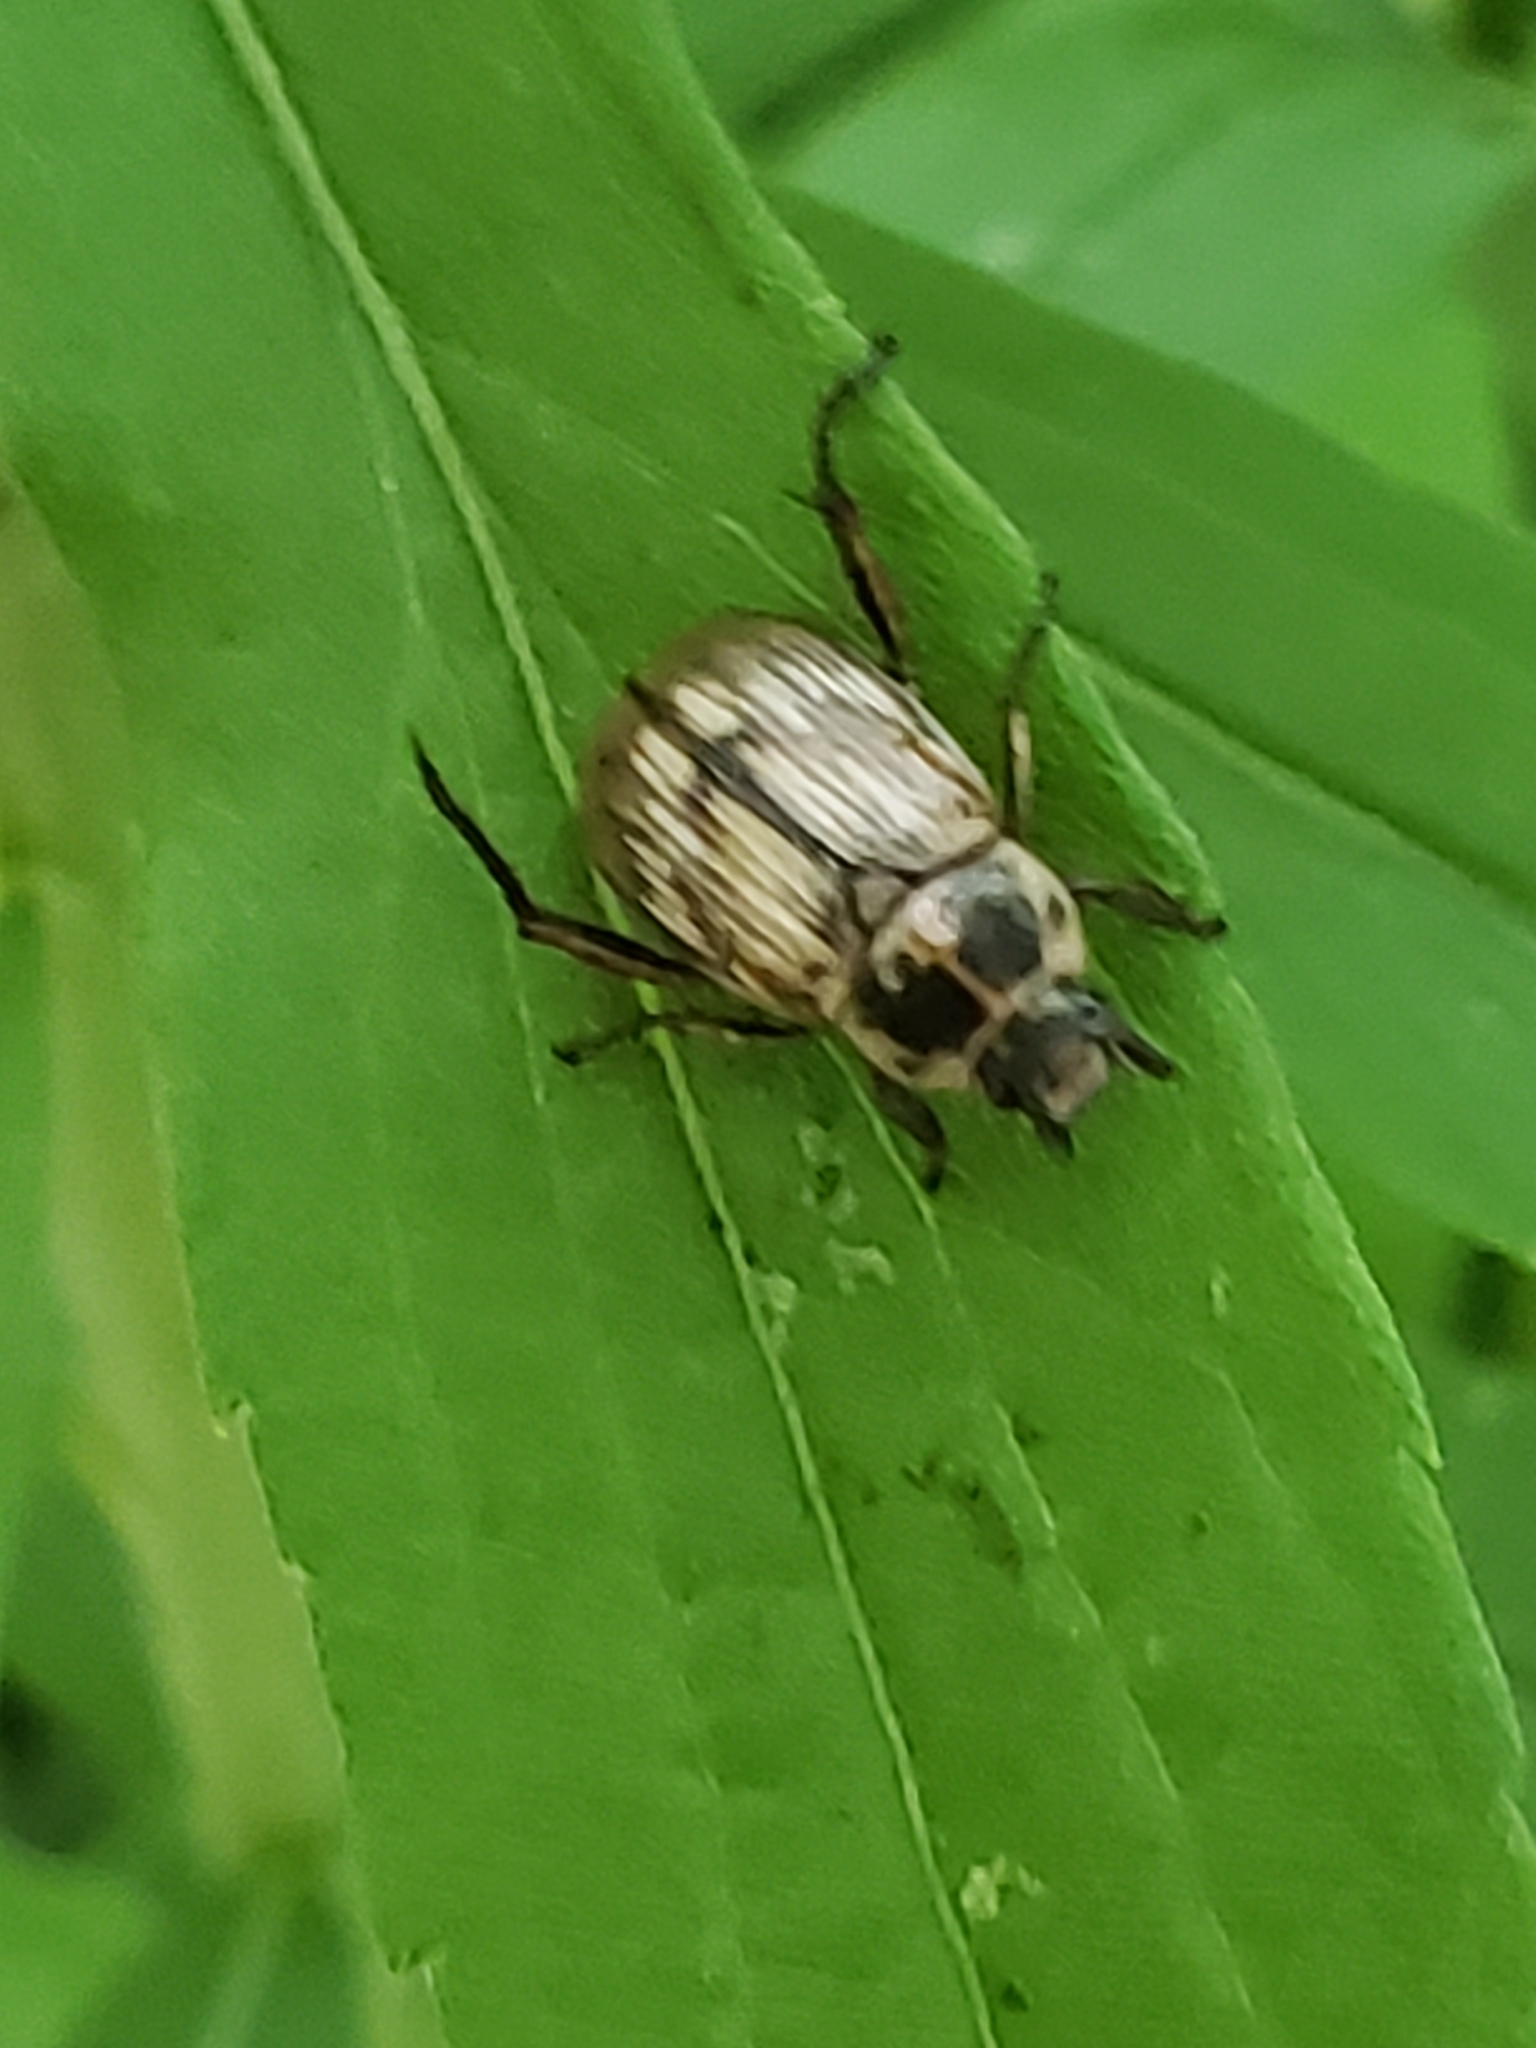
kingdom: Animalia
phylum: Arthropoda
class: Insecta
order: Coleoptera
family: Scarabaeidae
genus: Exomala
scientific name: Exomala orientalis
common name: Oriental beetle
